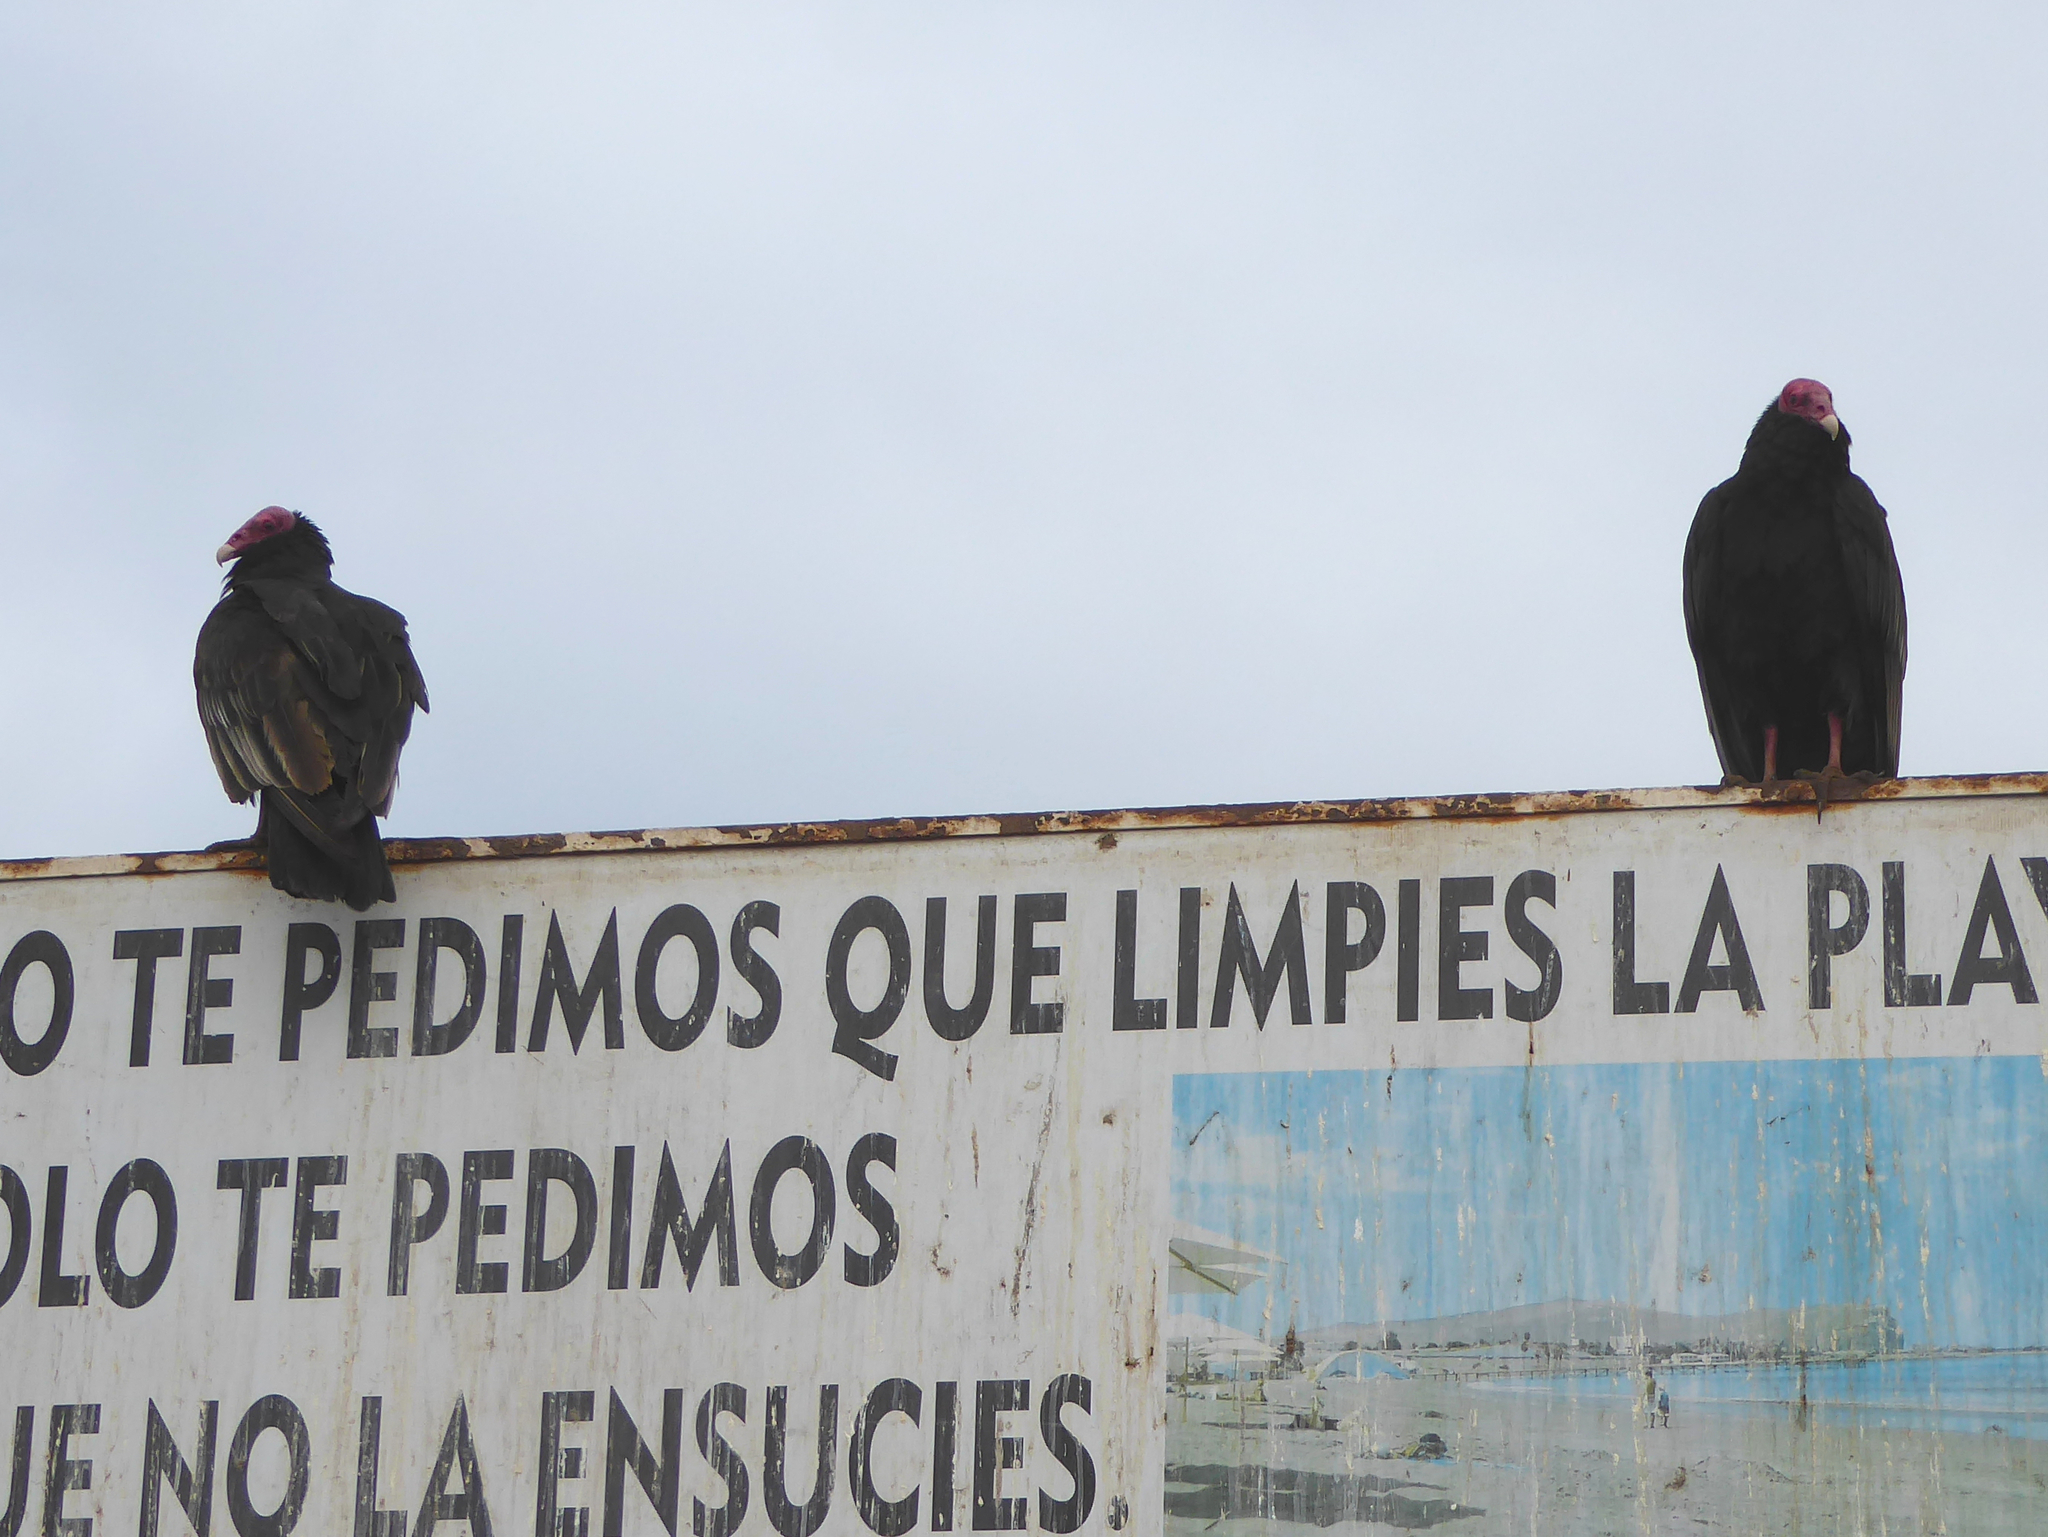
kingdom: Animalia
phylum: Chordata
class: Aves
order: Accipitriformes
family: Cathartidae
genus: Cathartes
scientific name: Cathartes aura
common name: Turkey vulture
